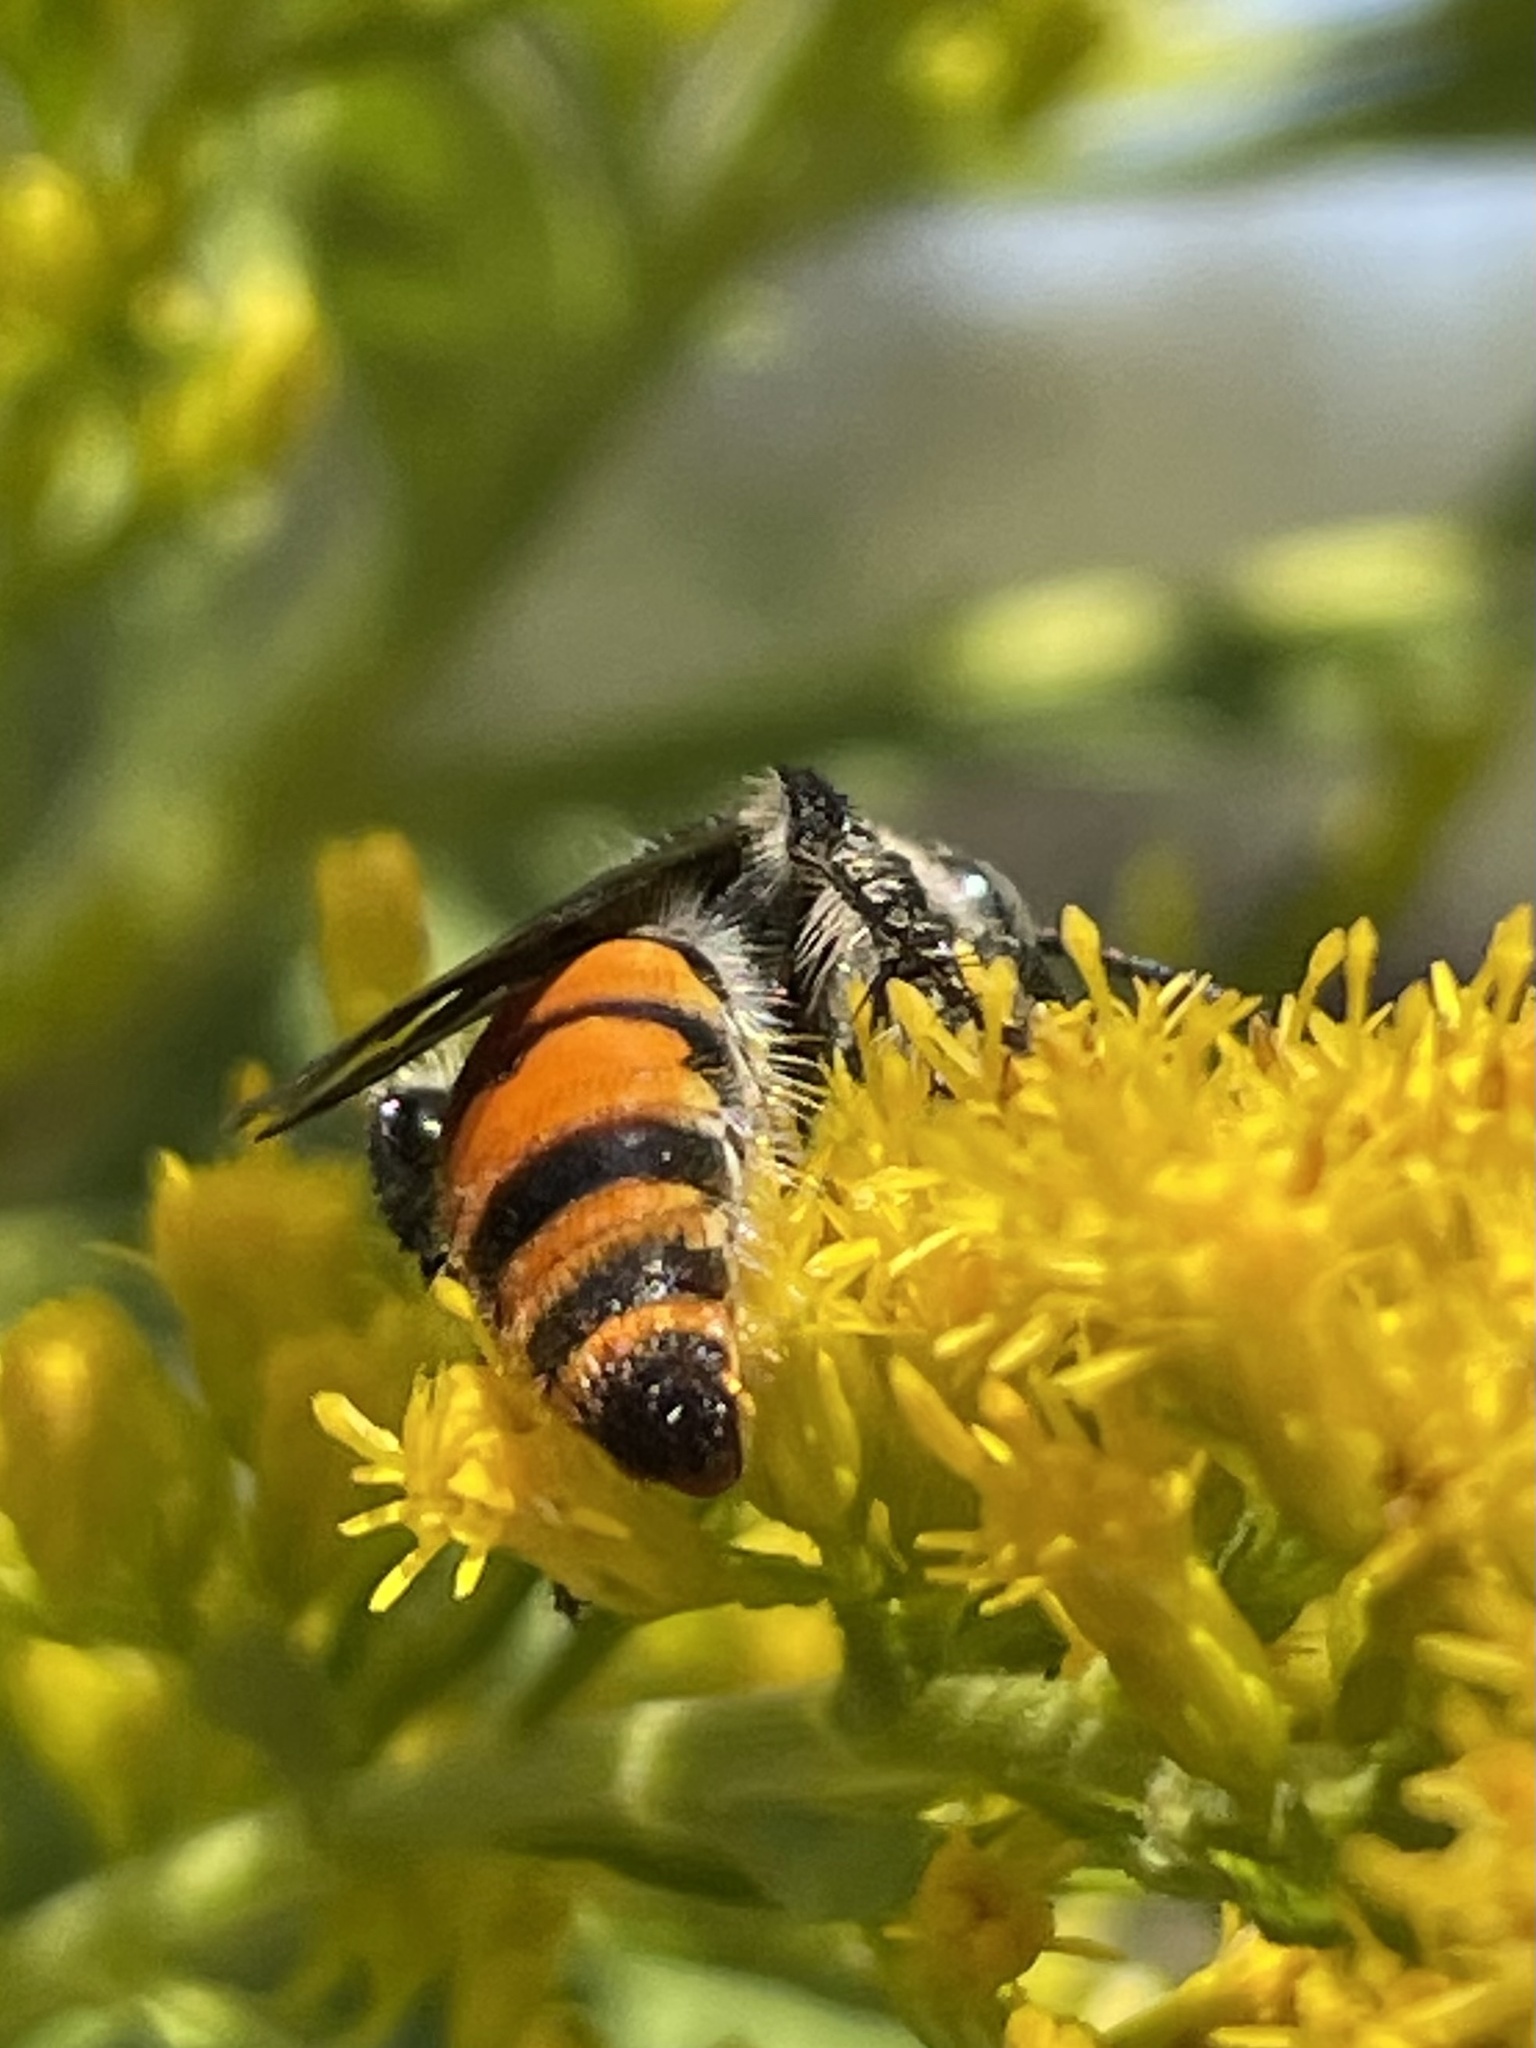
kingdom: Animalia
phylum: Arthropoda
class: Insecta
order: Hymenoptera
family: Scoliidae
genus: Dielis
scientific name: Dielis tolteca
